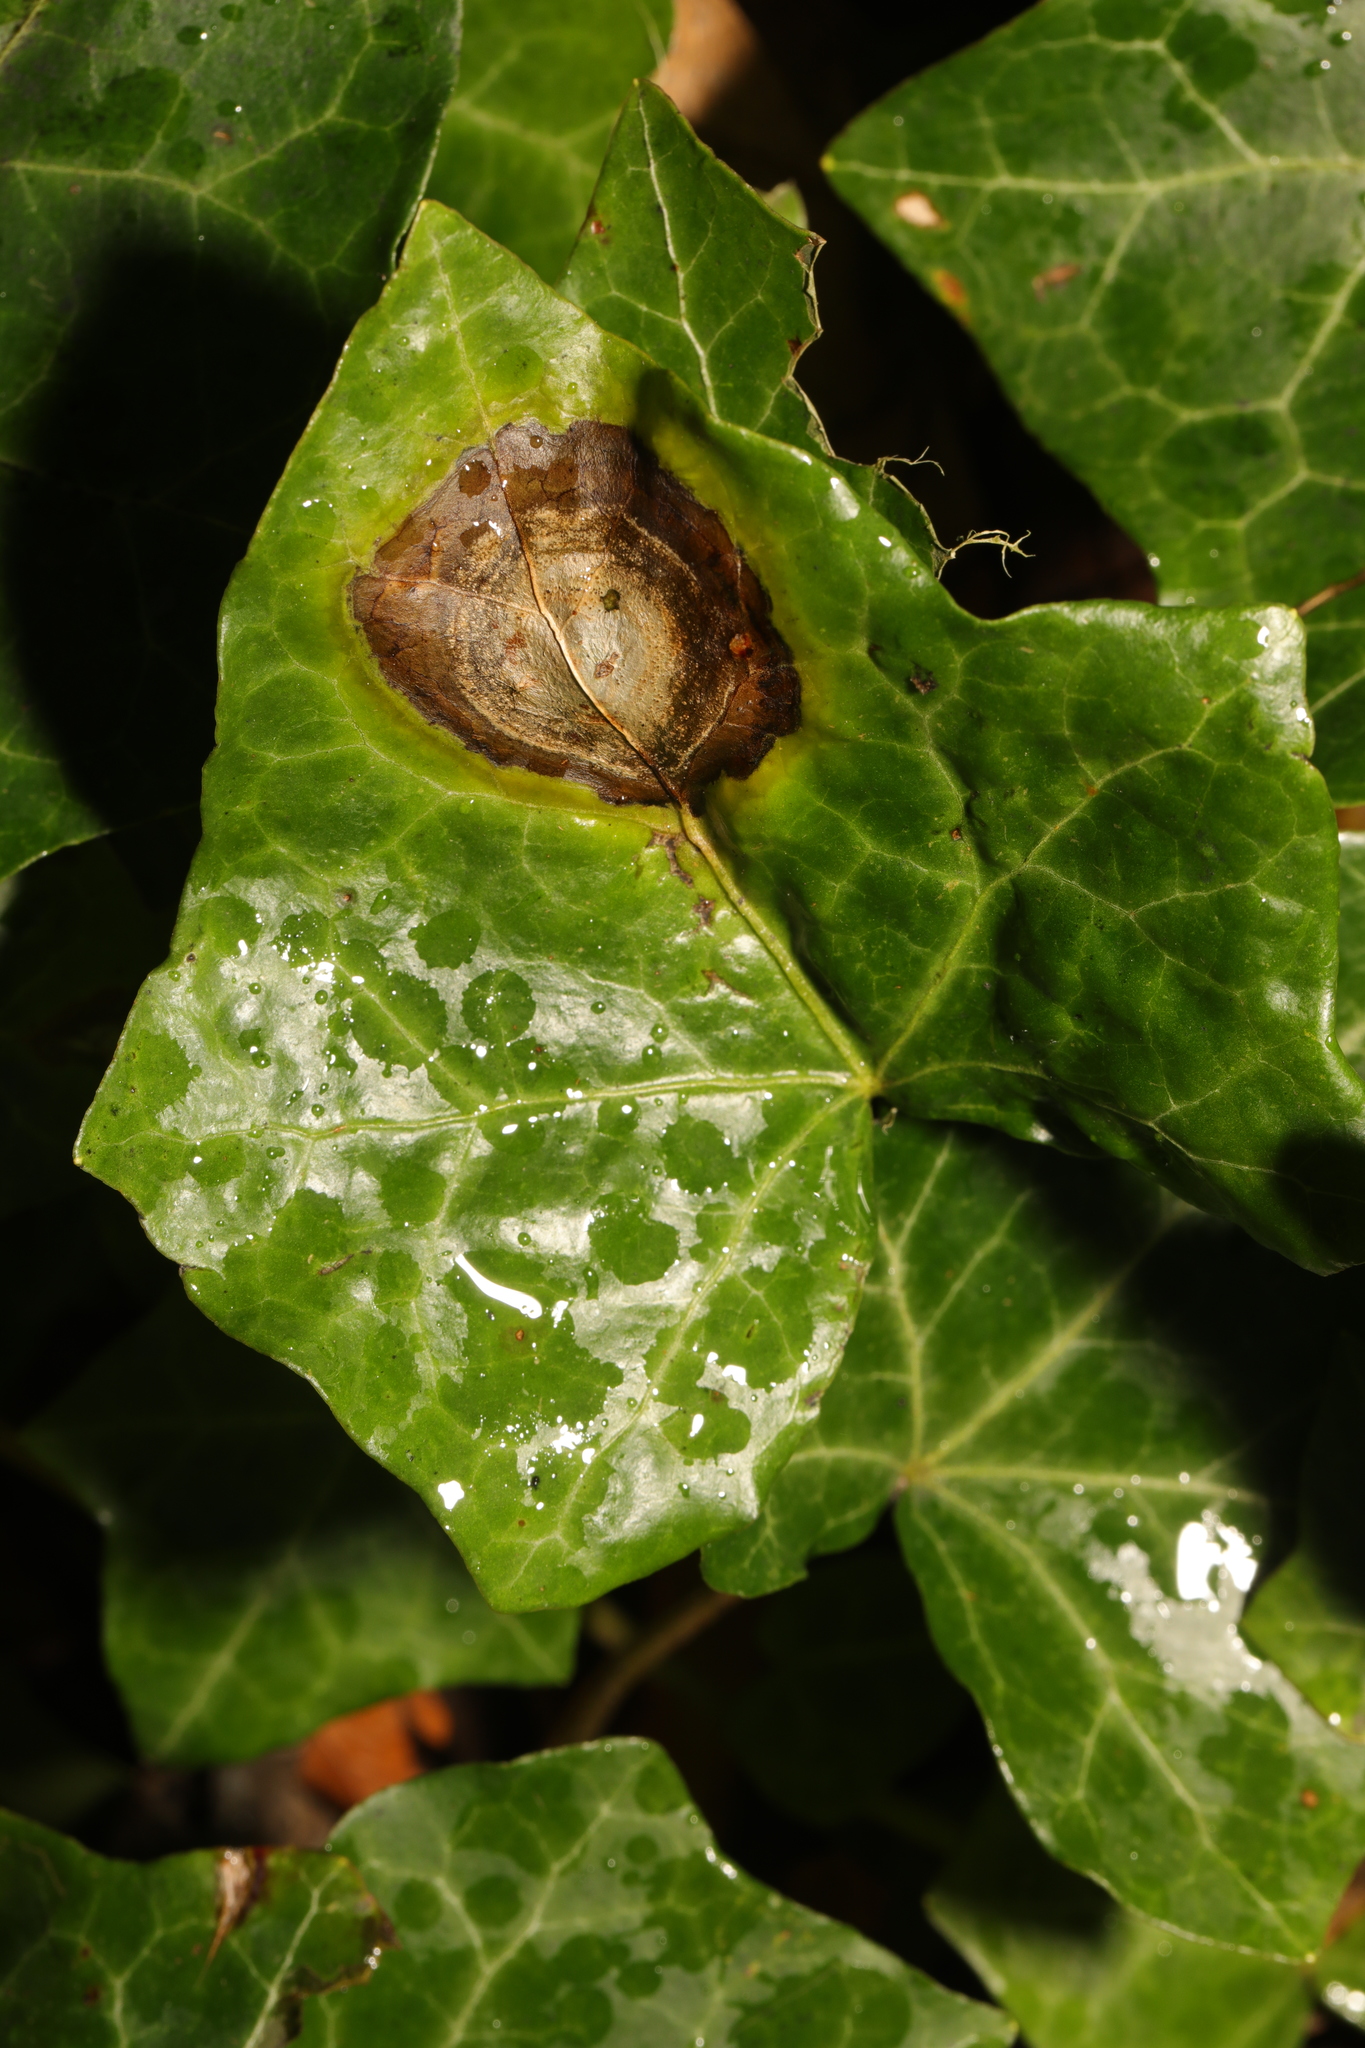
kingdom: Fungi
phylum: Ascomycota
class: Dothideomycetes
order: Pleosporales
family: Didymellaceae
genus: Boeremia
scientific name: Boeremia hedericola
